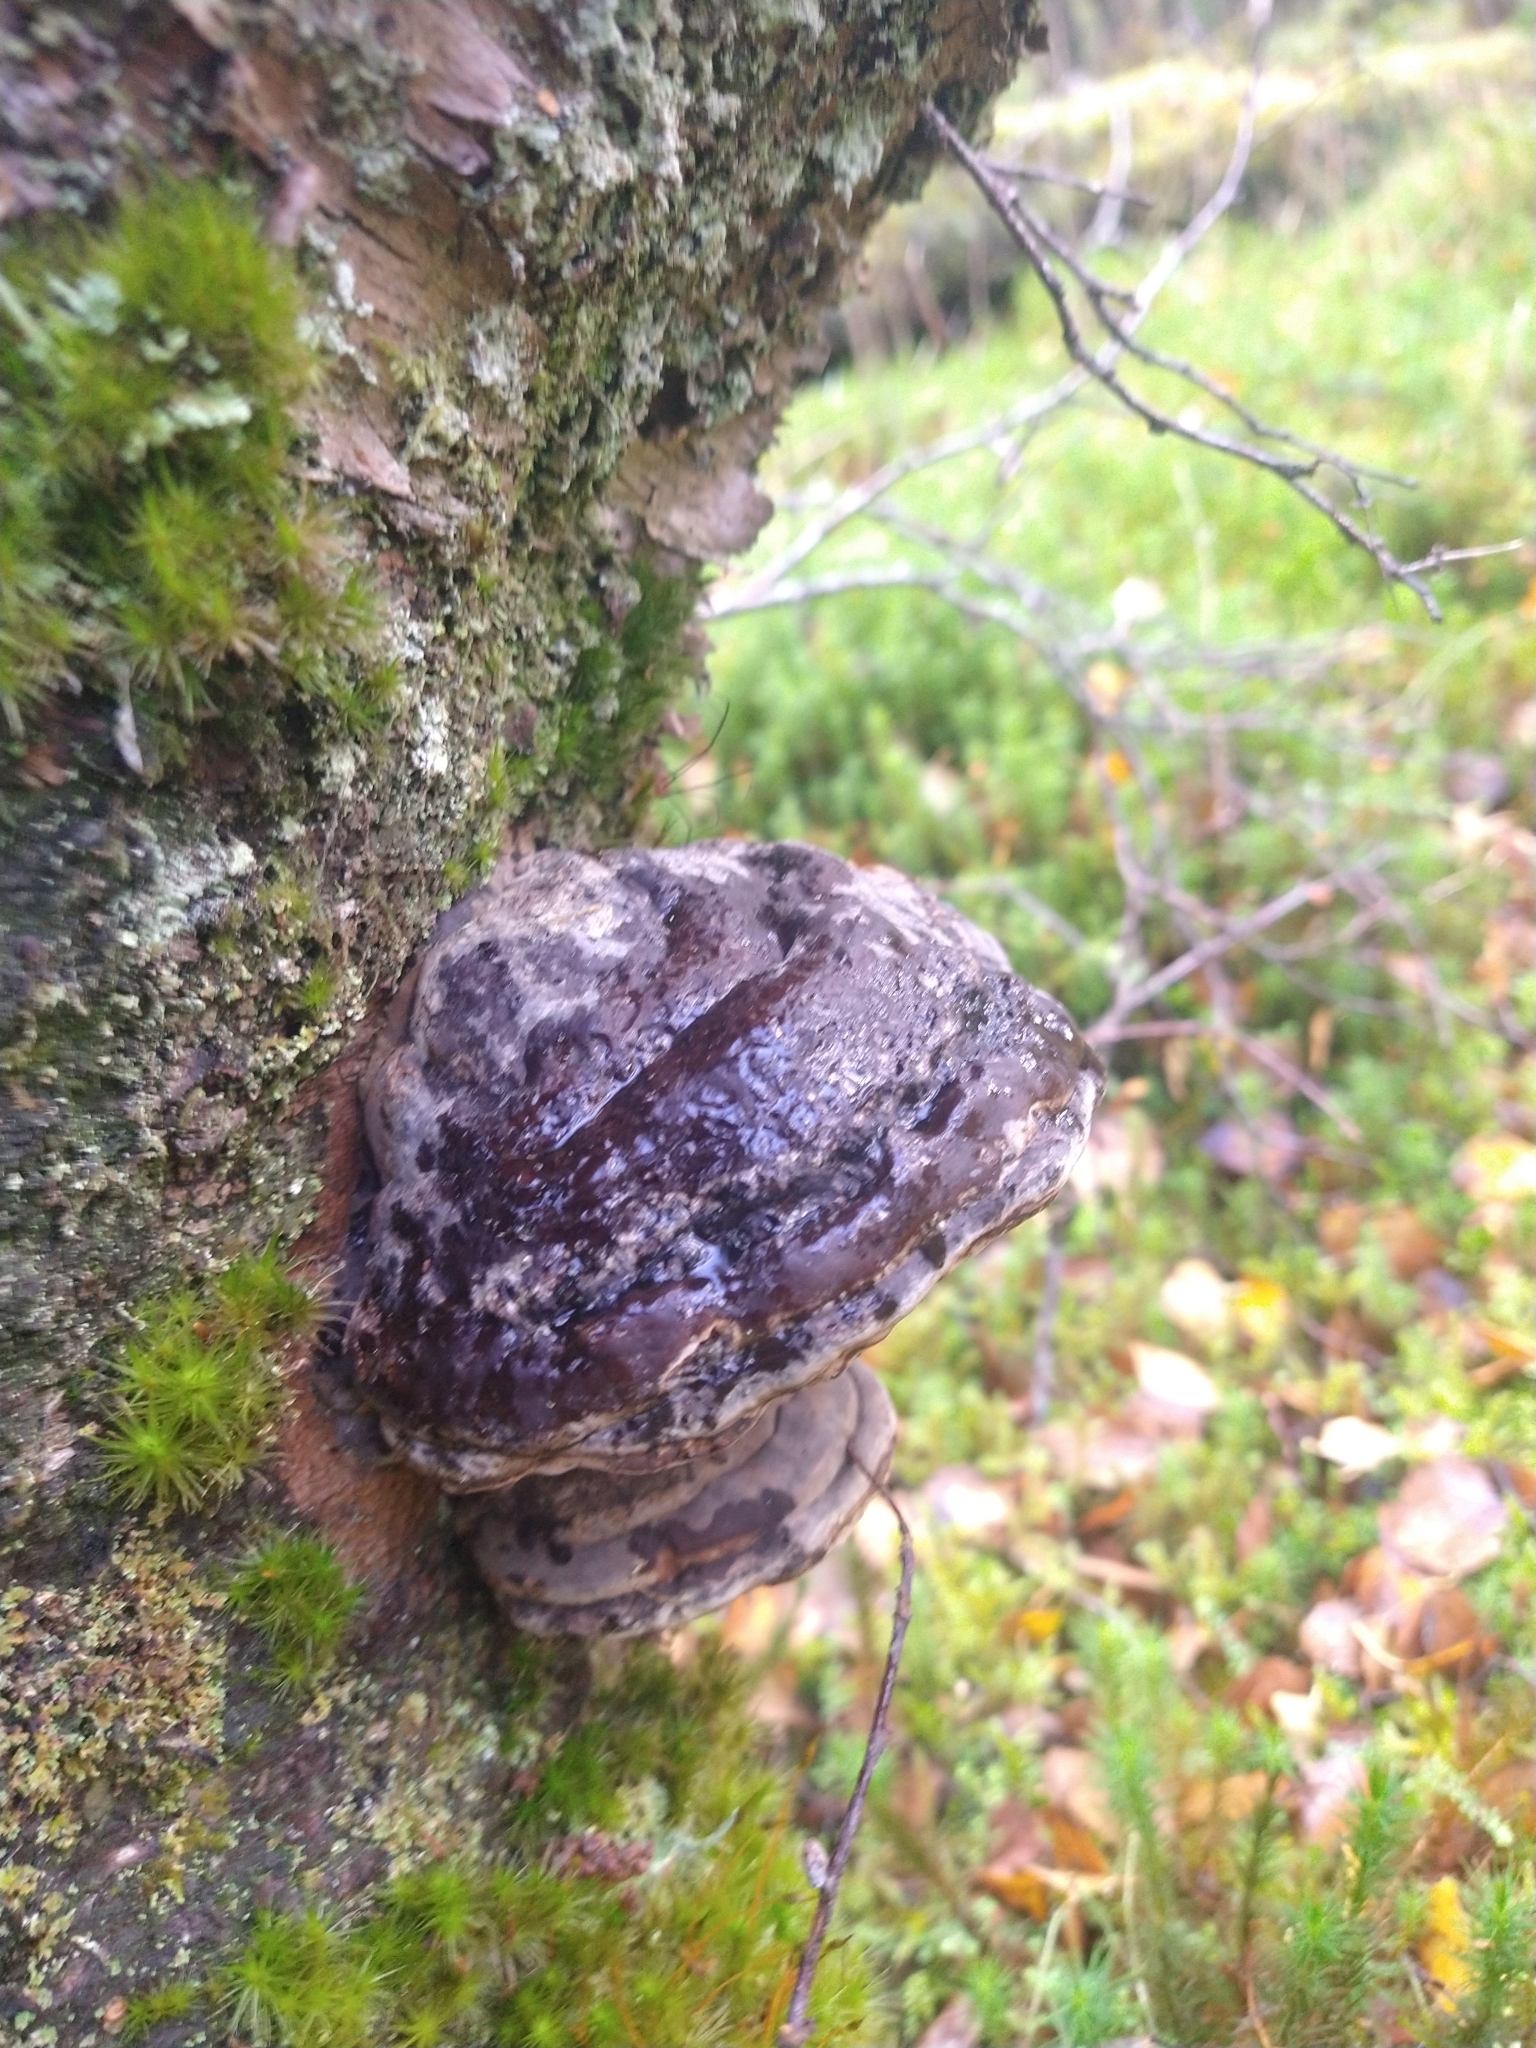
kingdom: Fungi
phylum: Basidiomycota
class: Agaricomycetes
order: Polyporales
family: Polyporaceae
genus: Fomes
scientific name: Fomes fomentarius
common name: Hoof fungus
